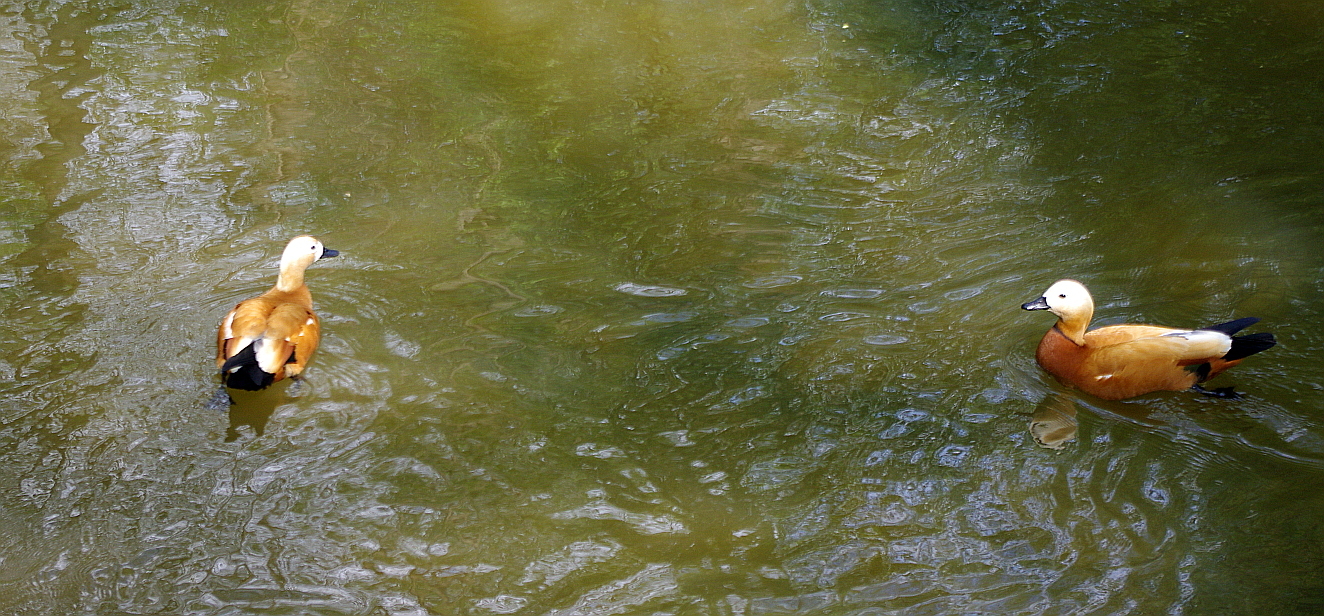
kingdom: Animalia
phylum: Chordata
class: Aves
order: Anseriformes
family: Anatidae
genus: Tadorna
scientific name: Tadorna ferruginea
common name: Ruddy shelduck
